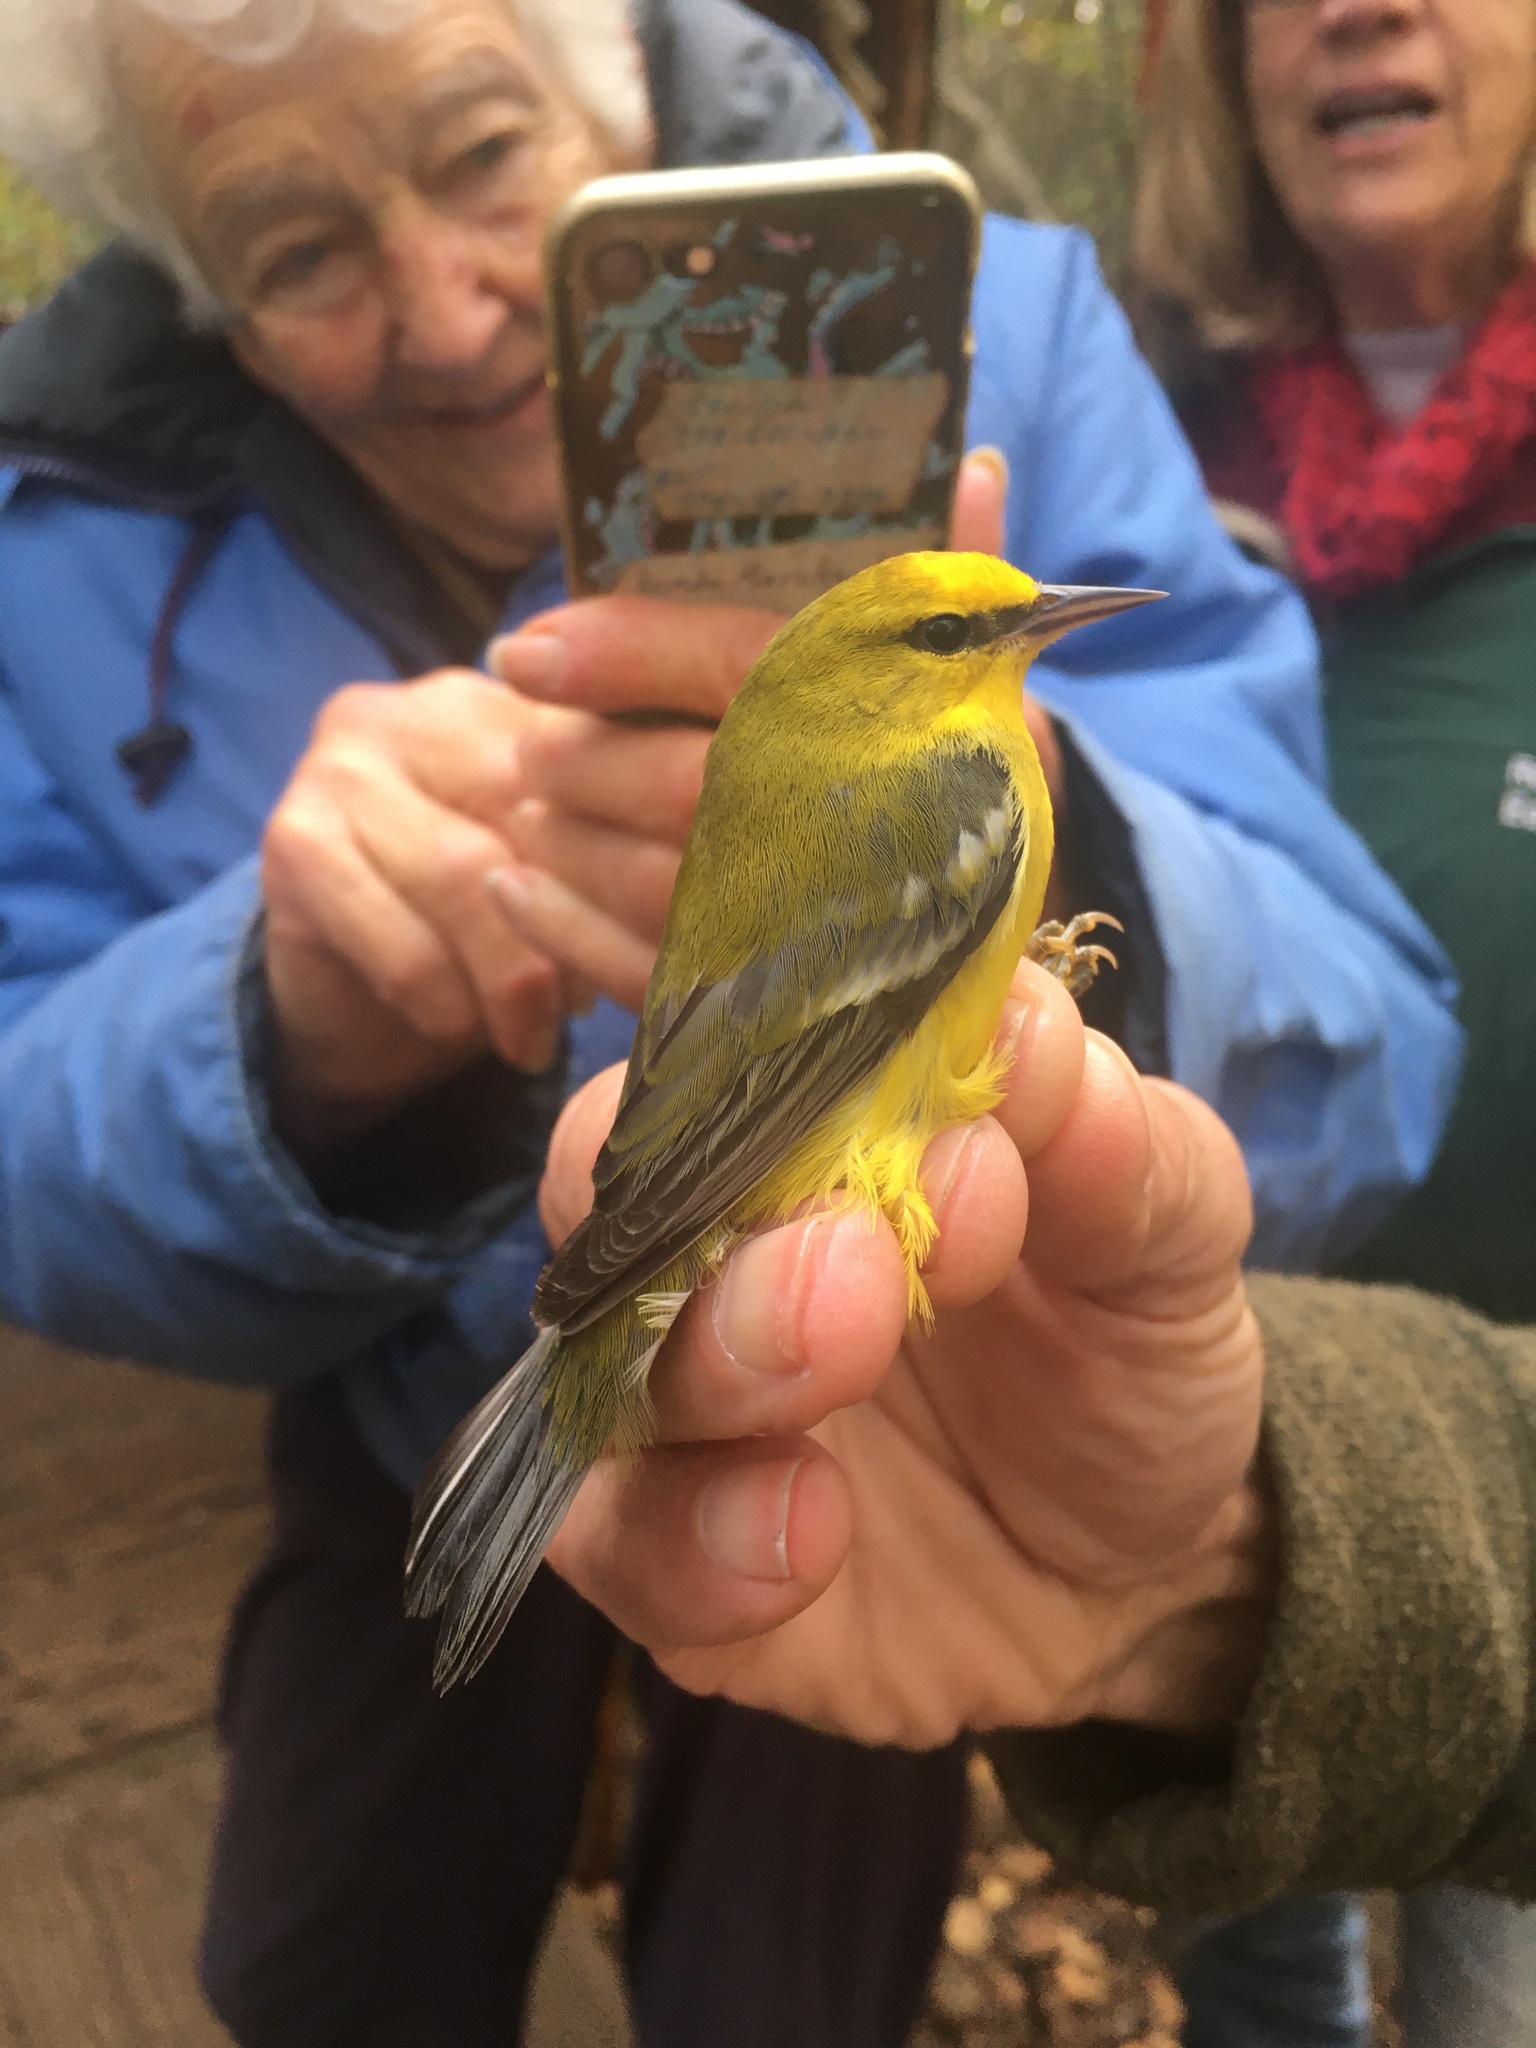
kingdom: Animalia
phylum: Chordata
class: Aves
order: Passeriformes
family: Parulidae
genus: Vermivora
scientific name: Vermivora cyanoptera
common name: Blue-winged warbler
